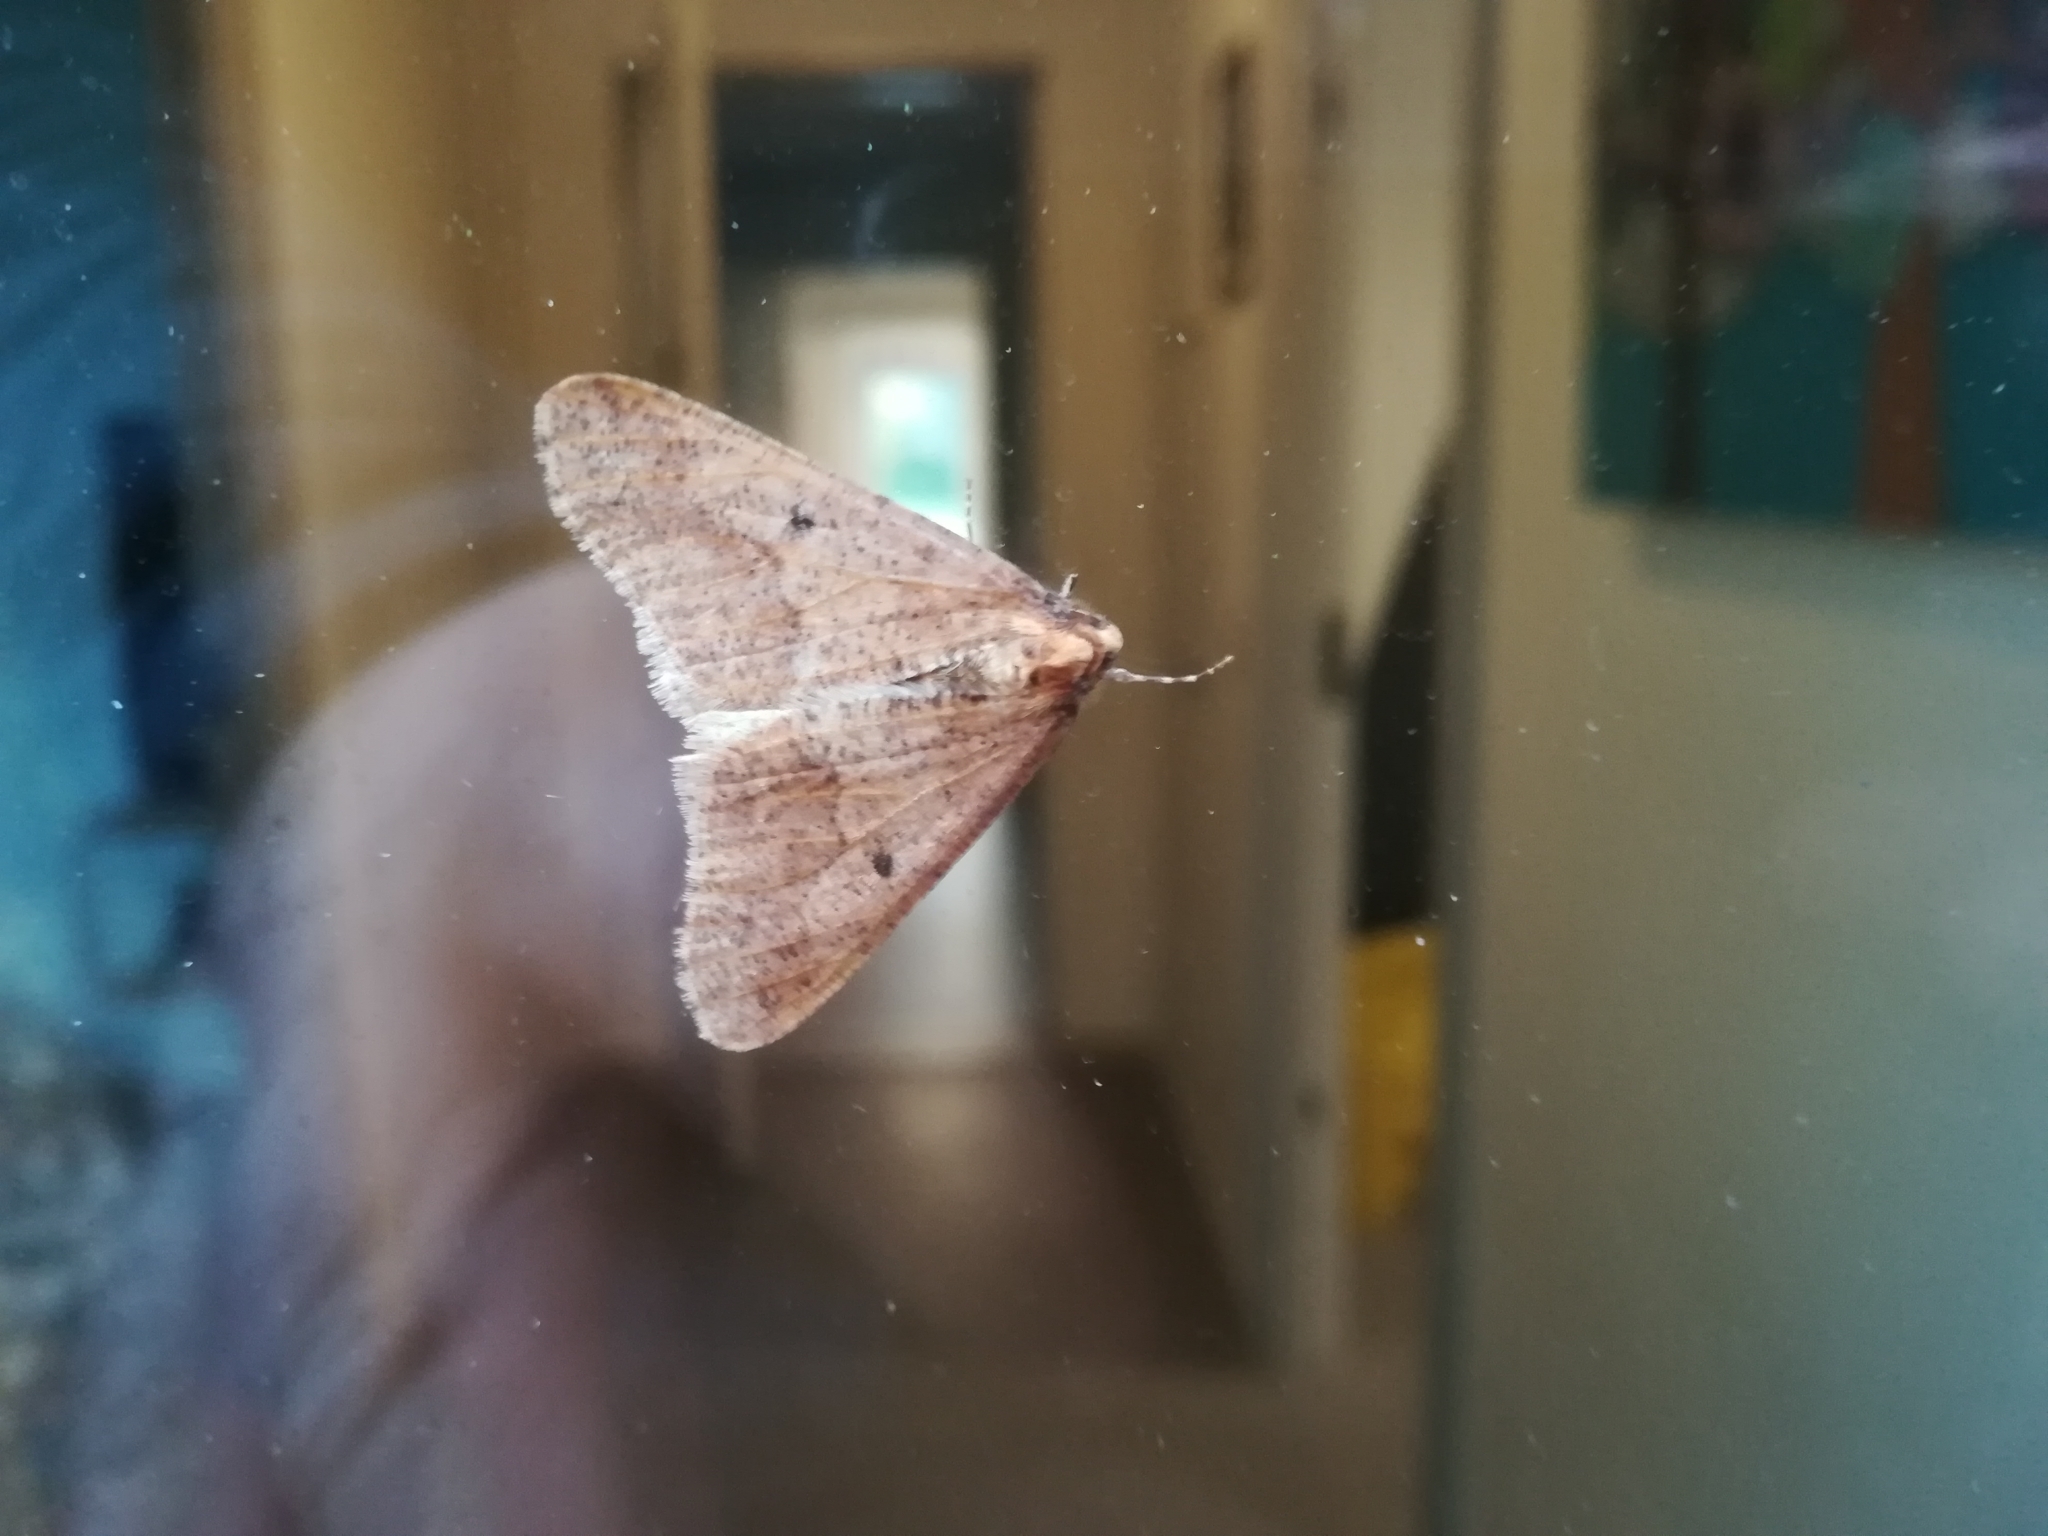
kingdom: Animalia
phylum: Arthropoda
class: Insecta
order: Lepidoptera
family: Geometridae
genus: Erannis
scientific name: Erannis defoliaria
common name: Mottled umber
